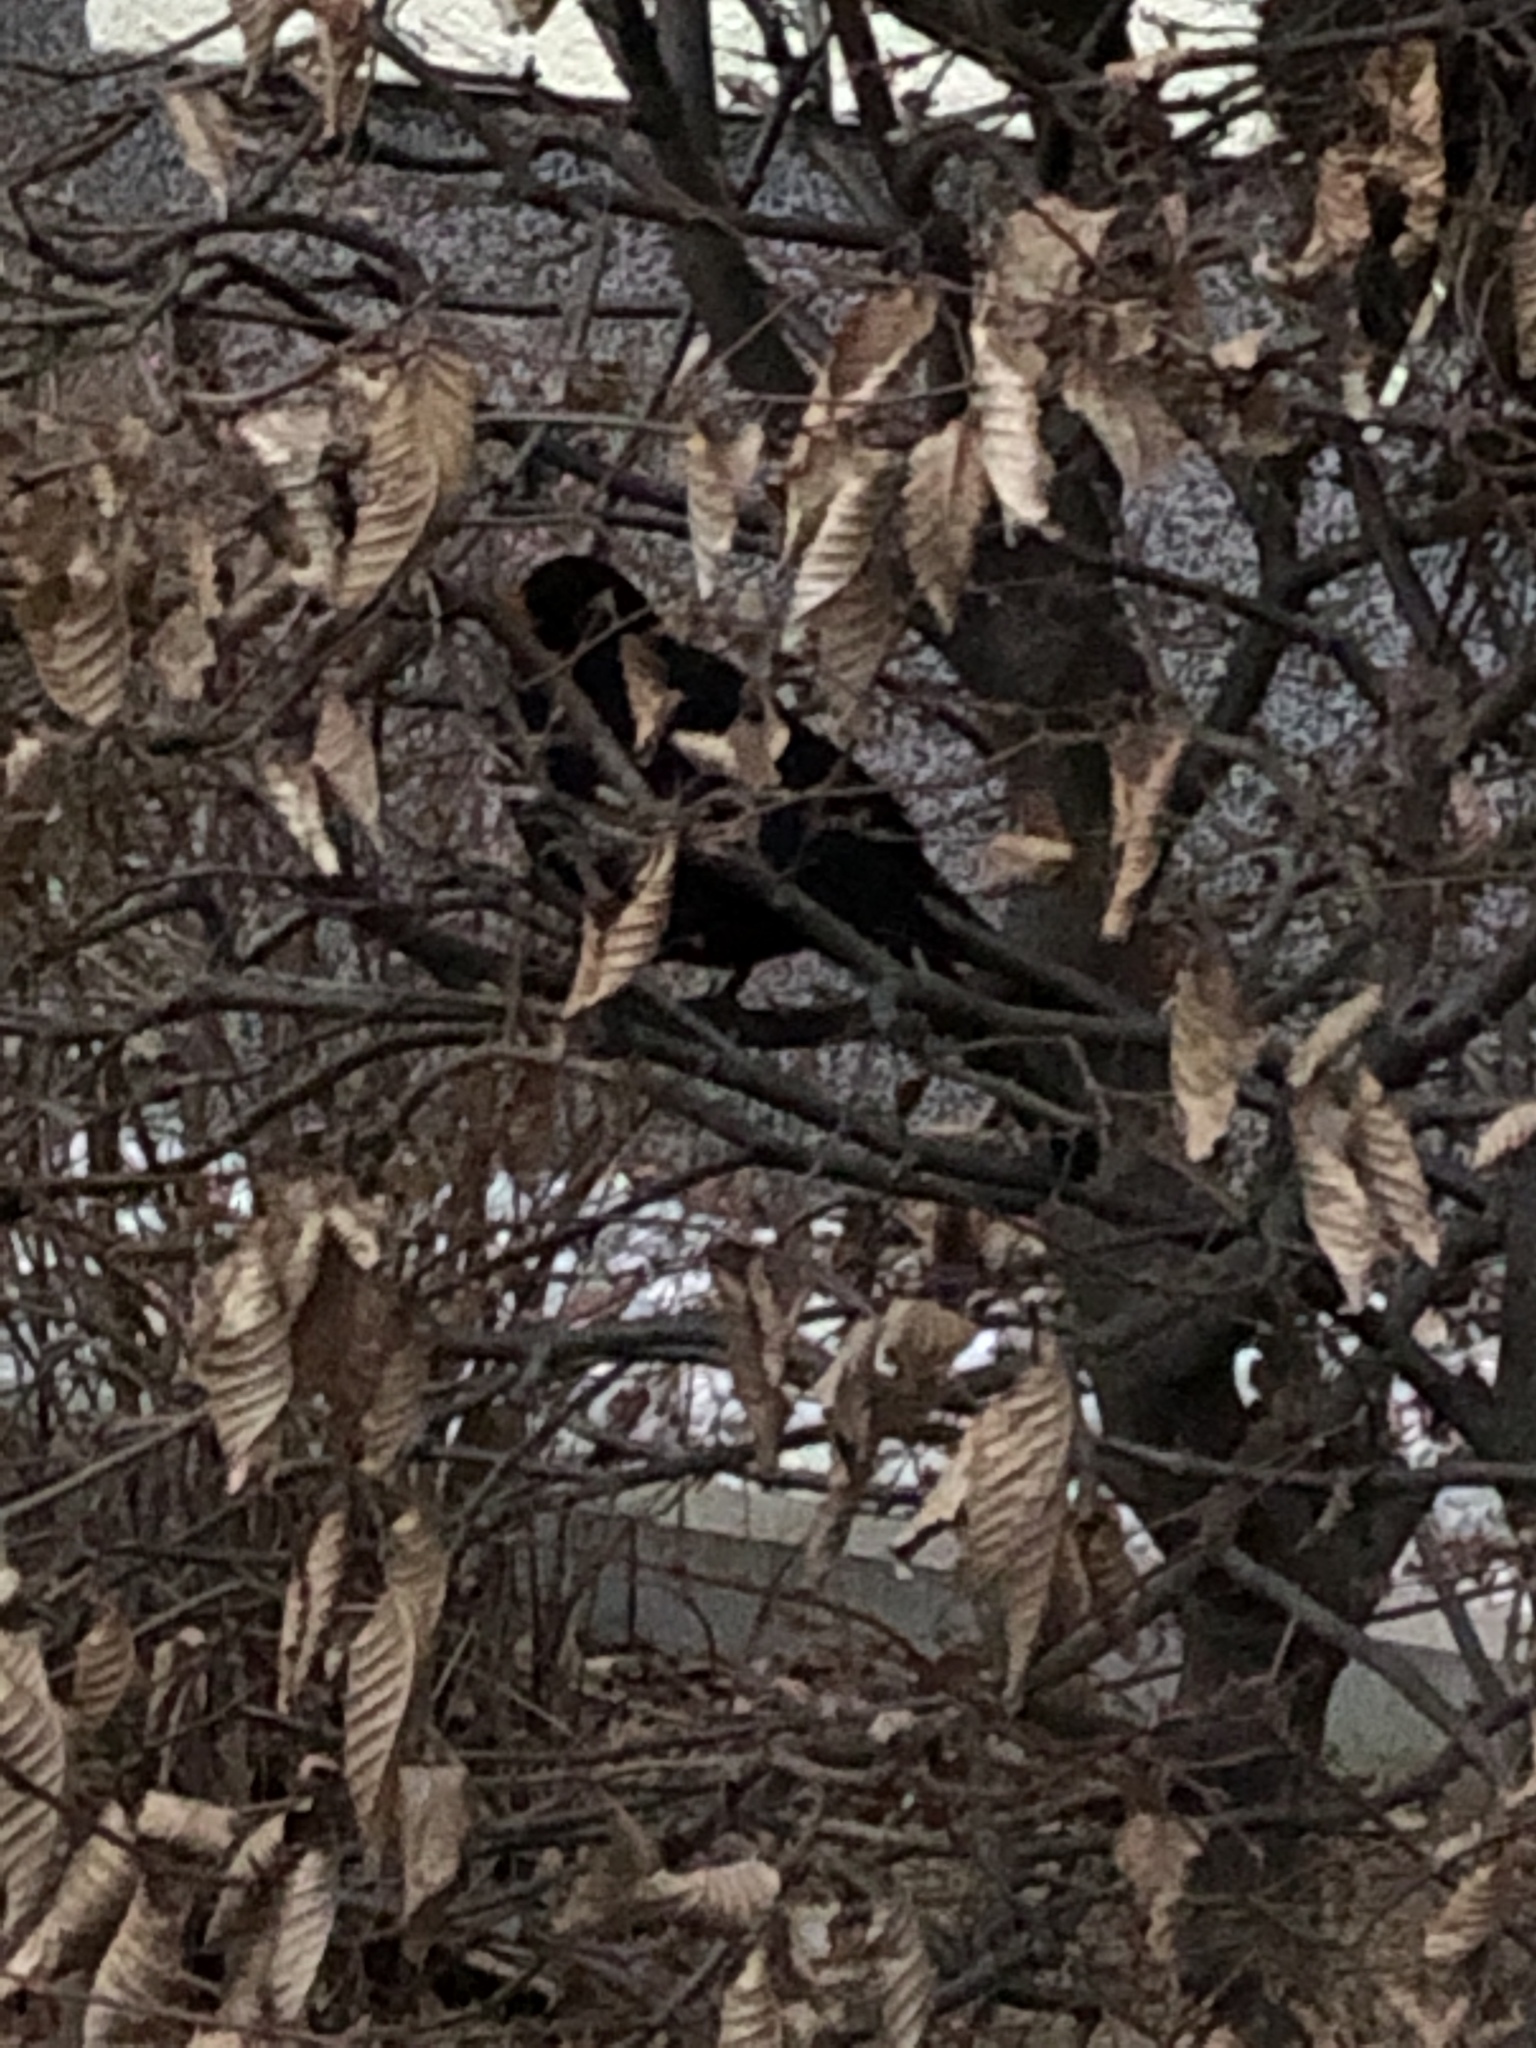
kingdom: Animalia
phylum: Chordata
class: Aves
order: Passeriformes
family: Turdidae
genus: Turdus
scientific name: Turdus merula
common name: Common blackbird
